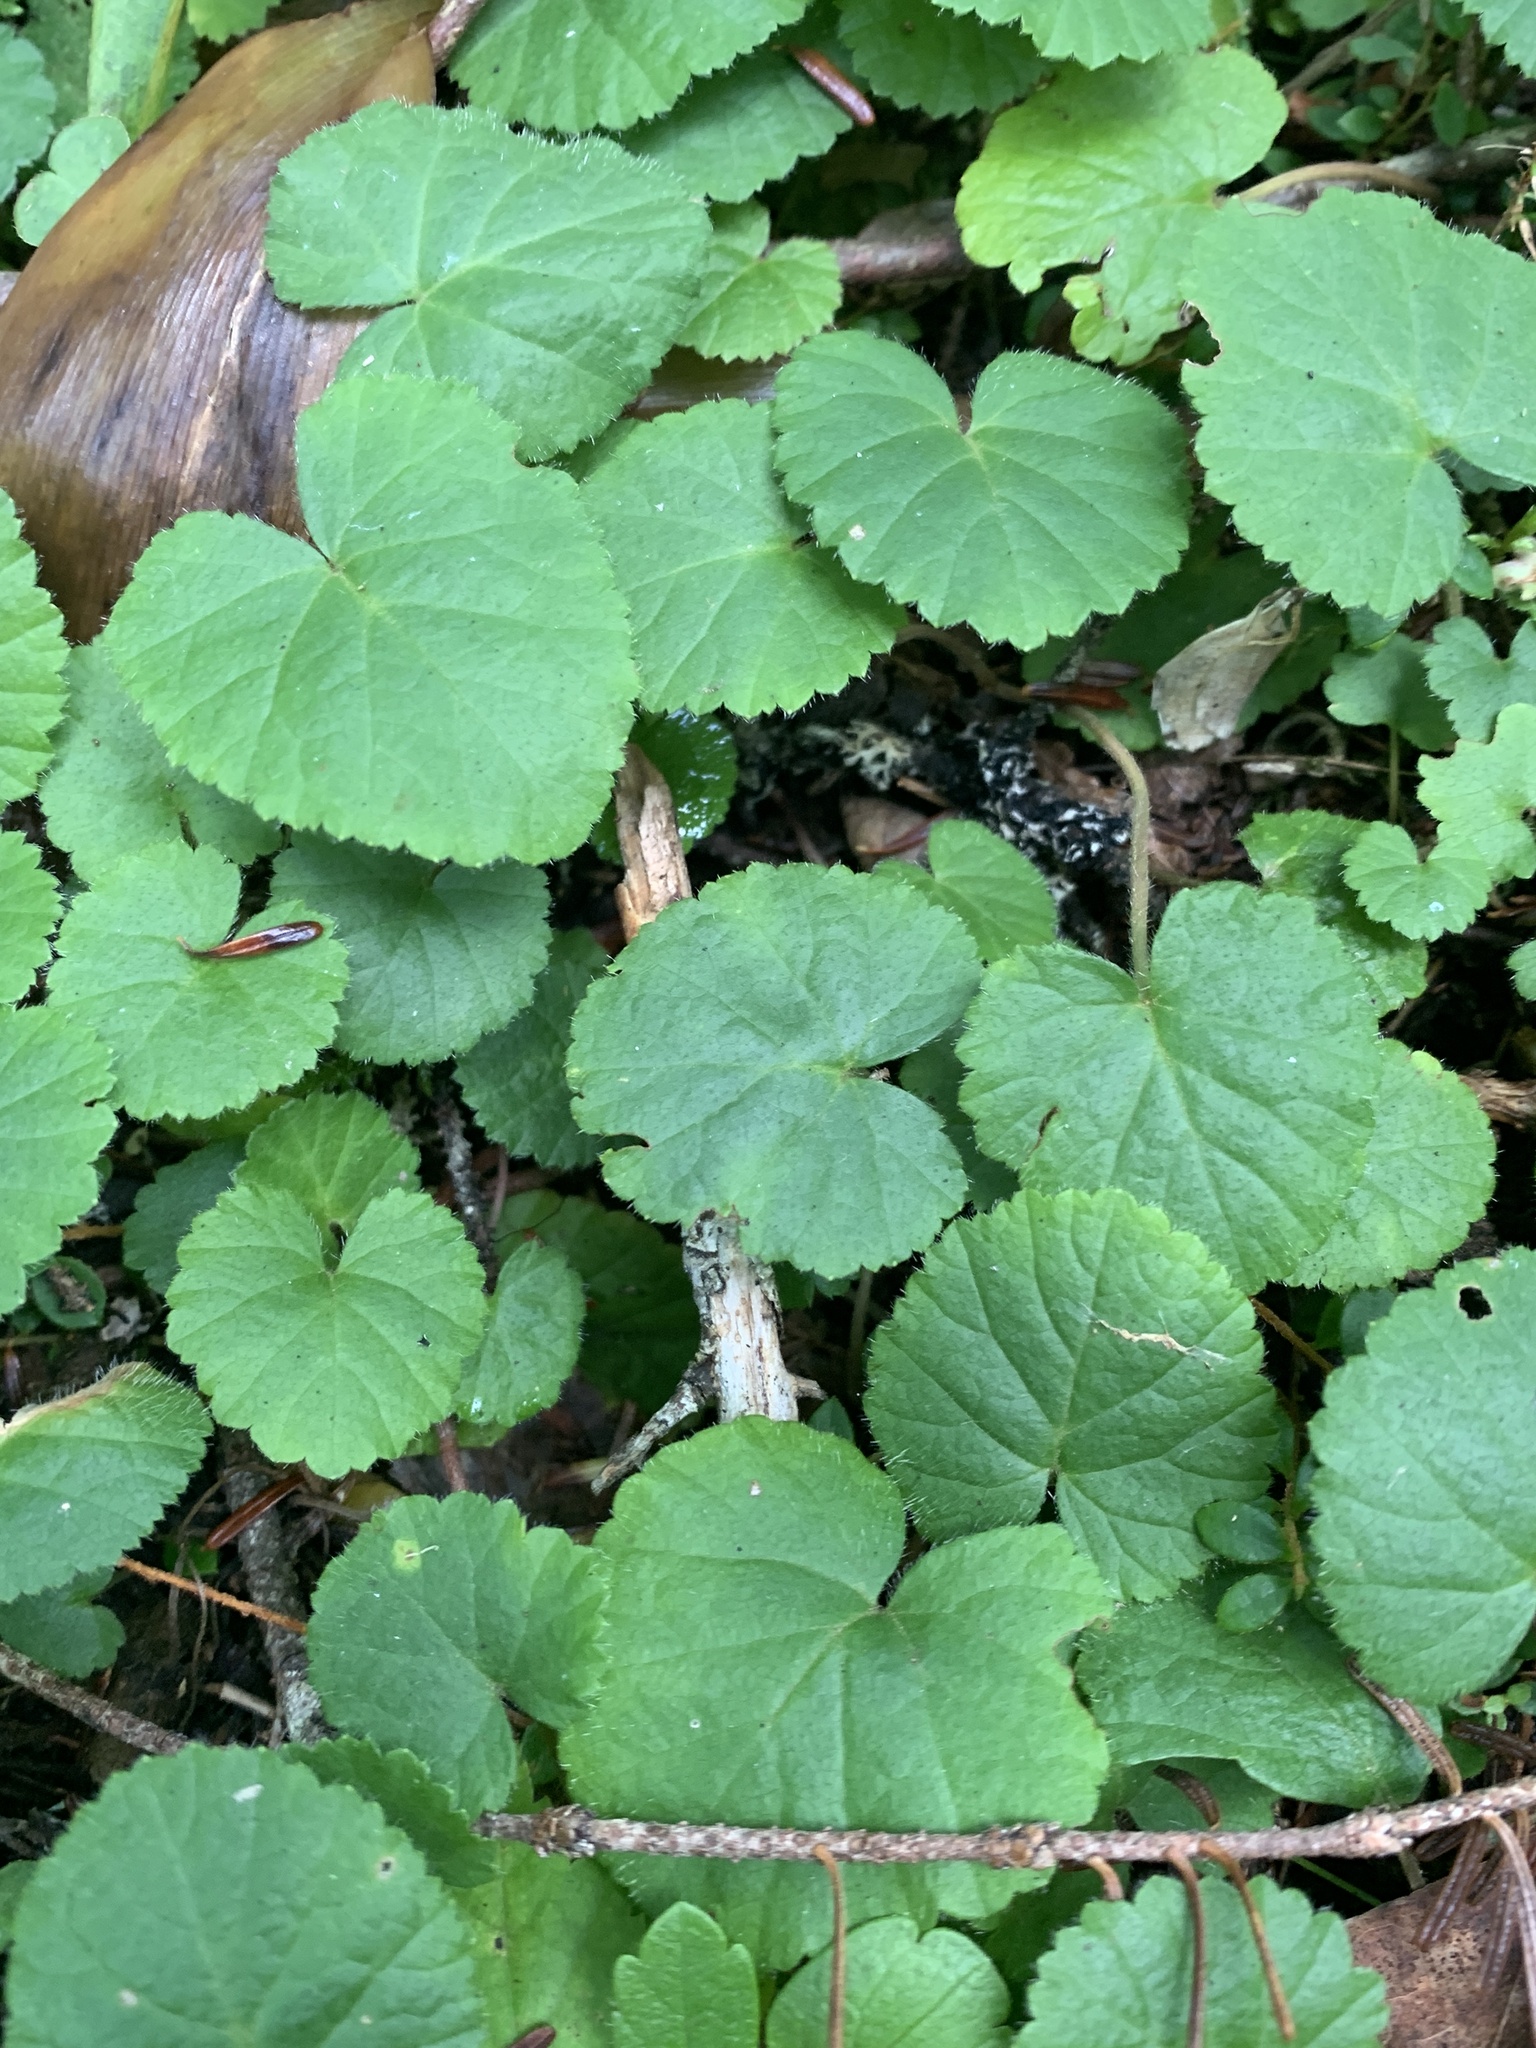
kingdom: Plantae
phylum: Tracheophyta
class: Magnoliopsida
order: Rosales
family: Rosaceae
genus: Dalibarda
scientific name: Dalibarda repens
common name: Dewdrop
